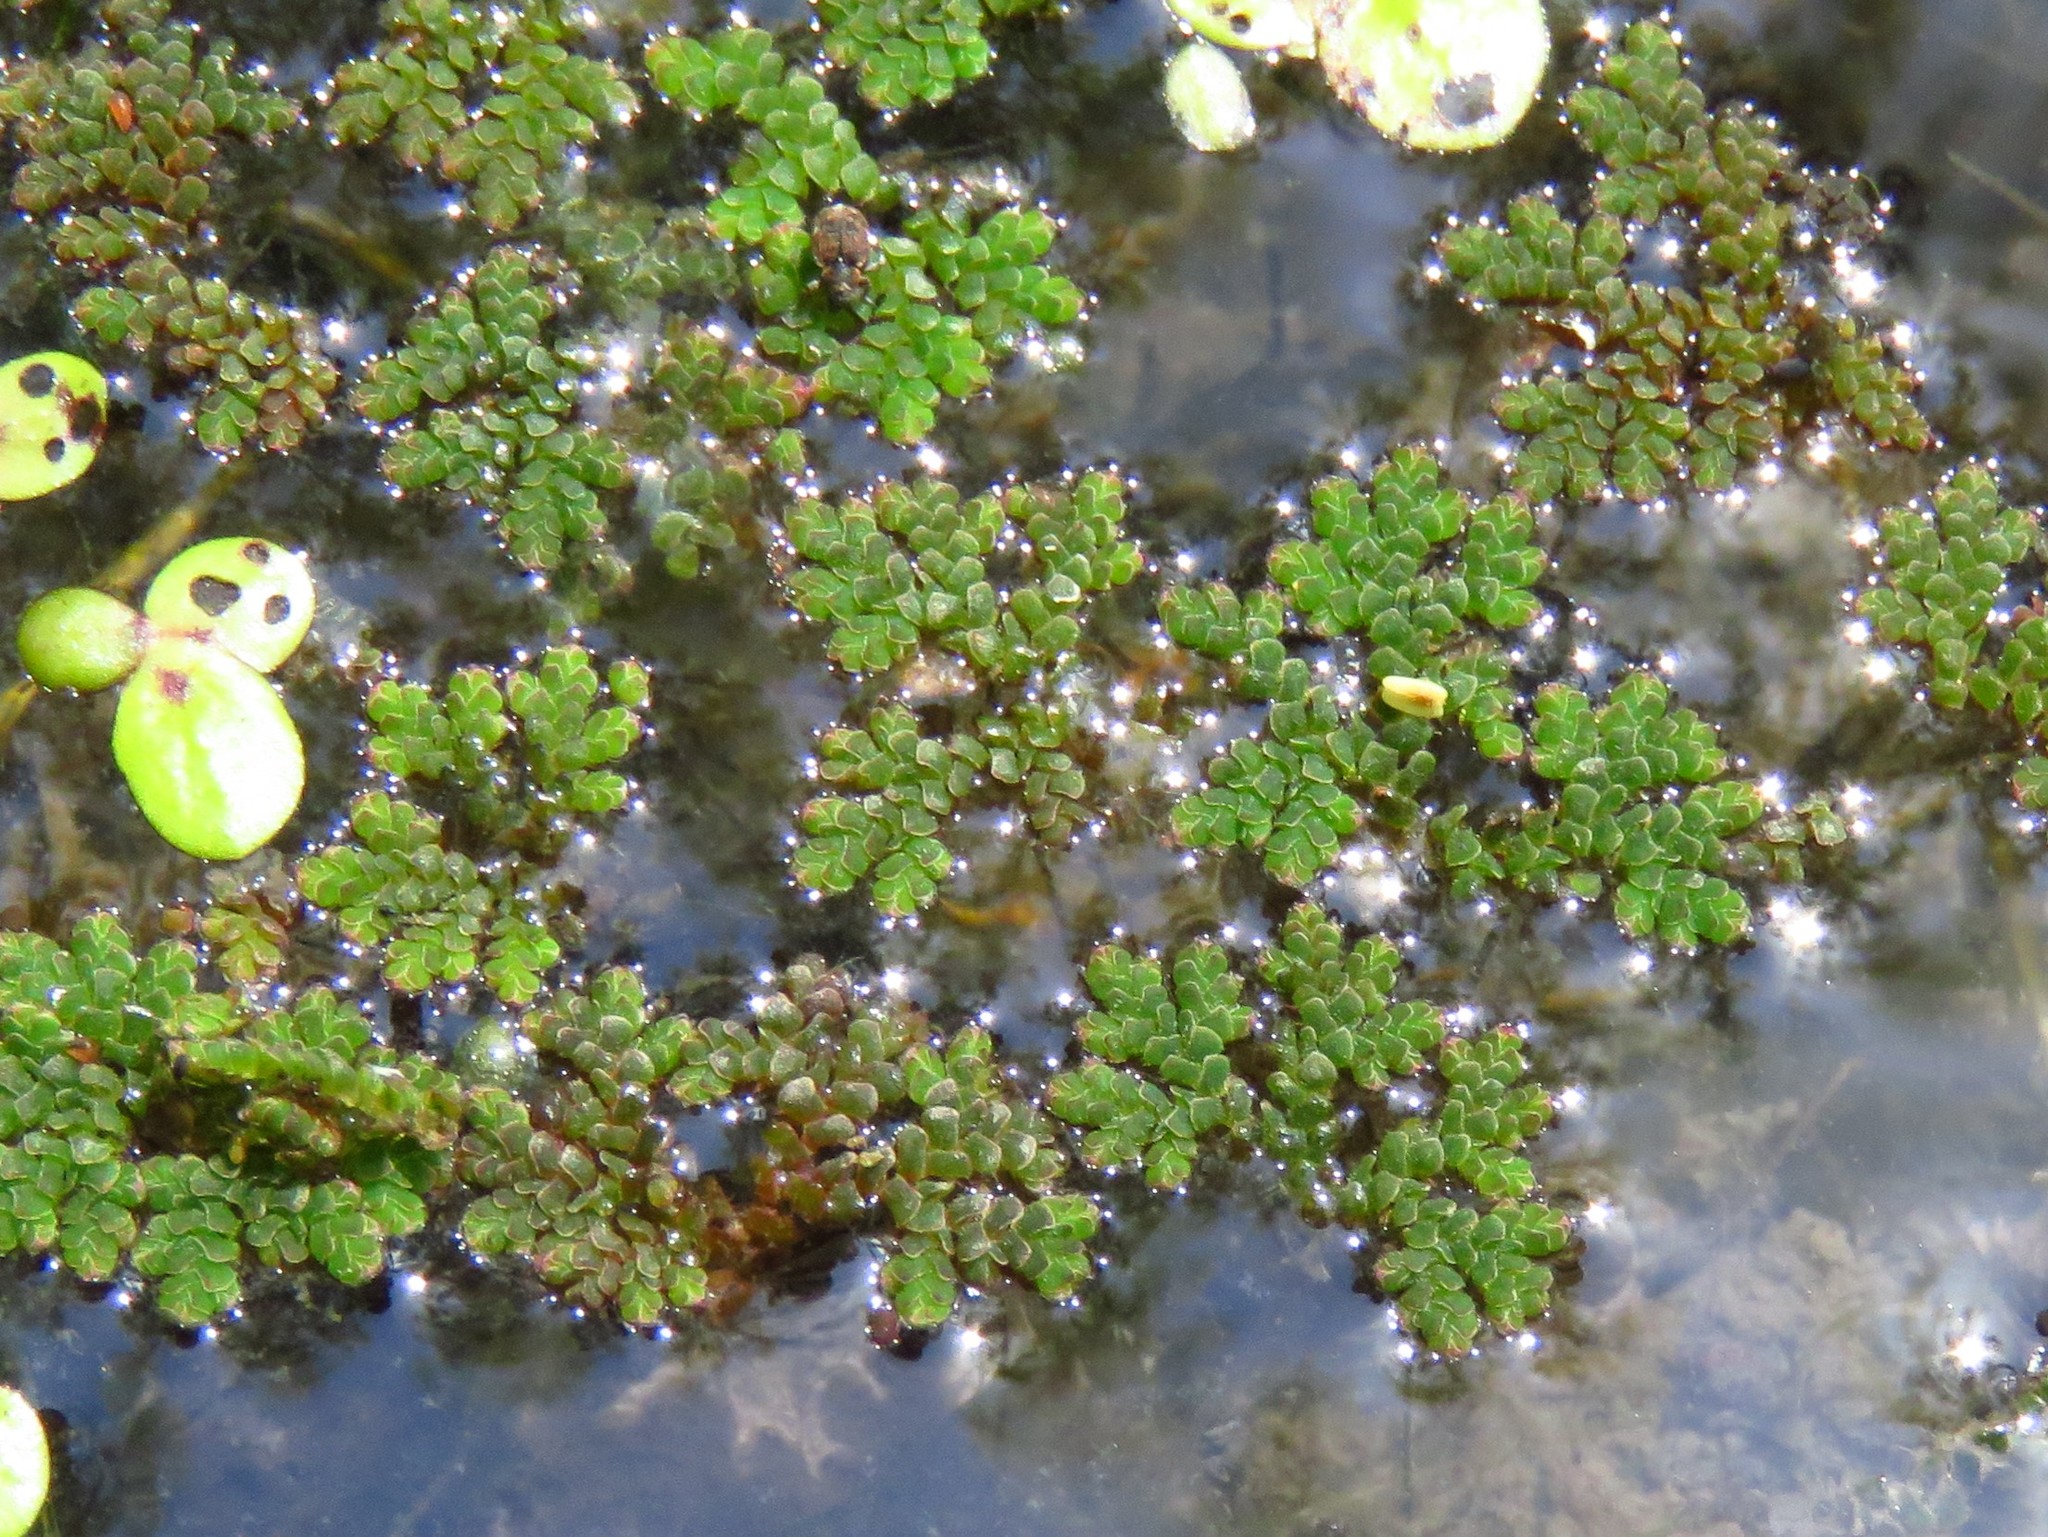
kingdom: Plantae
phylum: Tracheophyta
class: Polypodiopsida
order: Salviniales
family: Salviniaceae
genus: Azolla
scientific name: Azolla caroliniana
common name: Carolina mosquitofern
